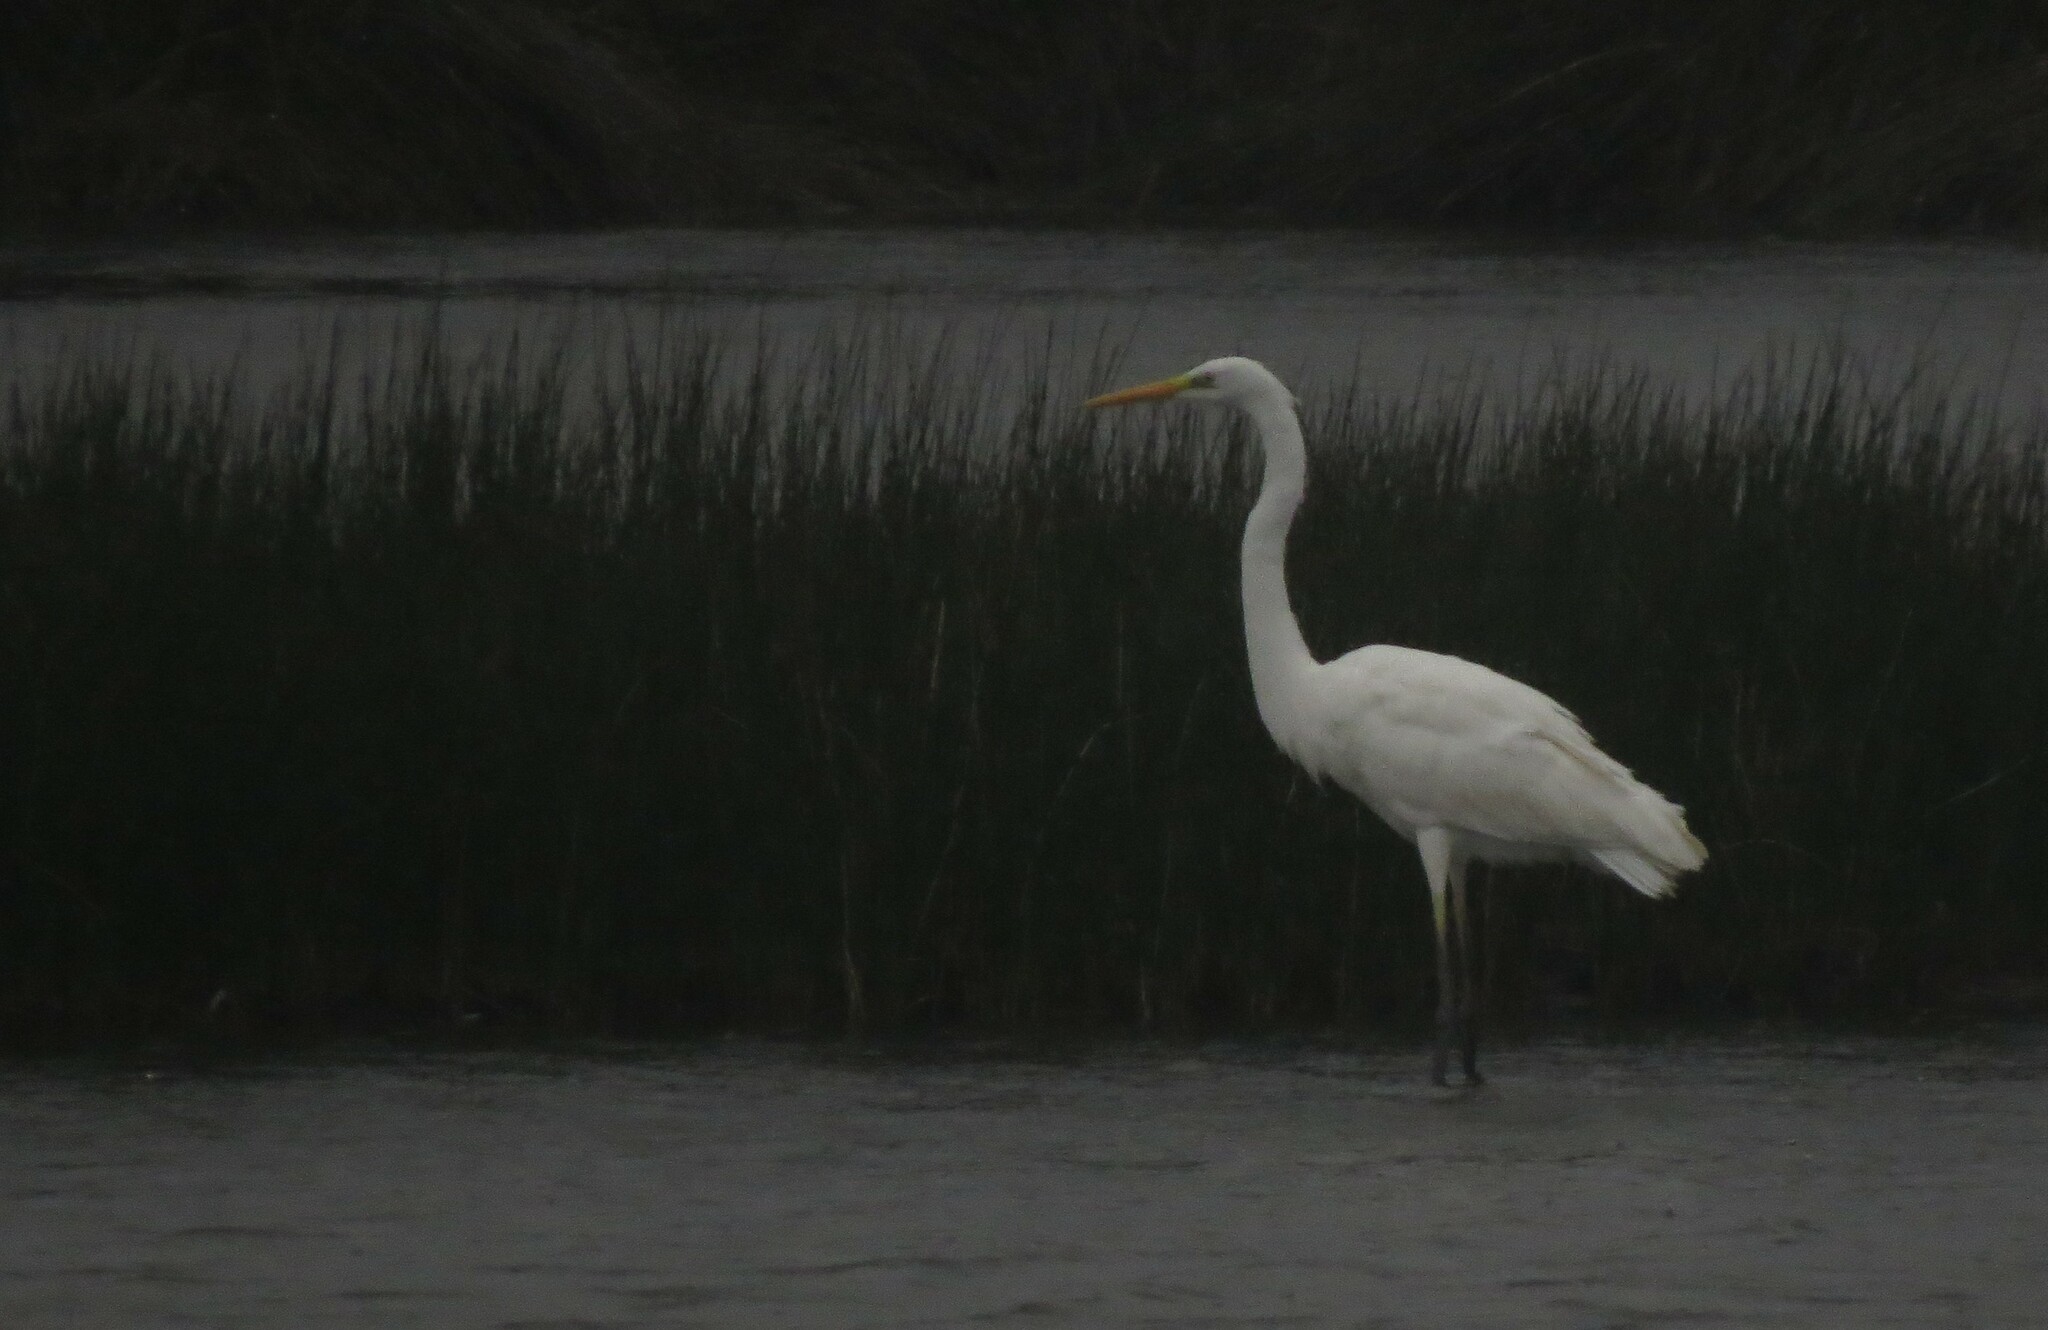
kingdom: Animalia
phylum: Chordata
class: Aves
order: Pelecaniformes
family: Ardeidae
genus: Ardea
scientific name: Ardea alba
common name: Great egret
